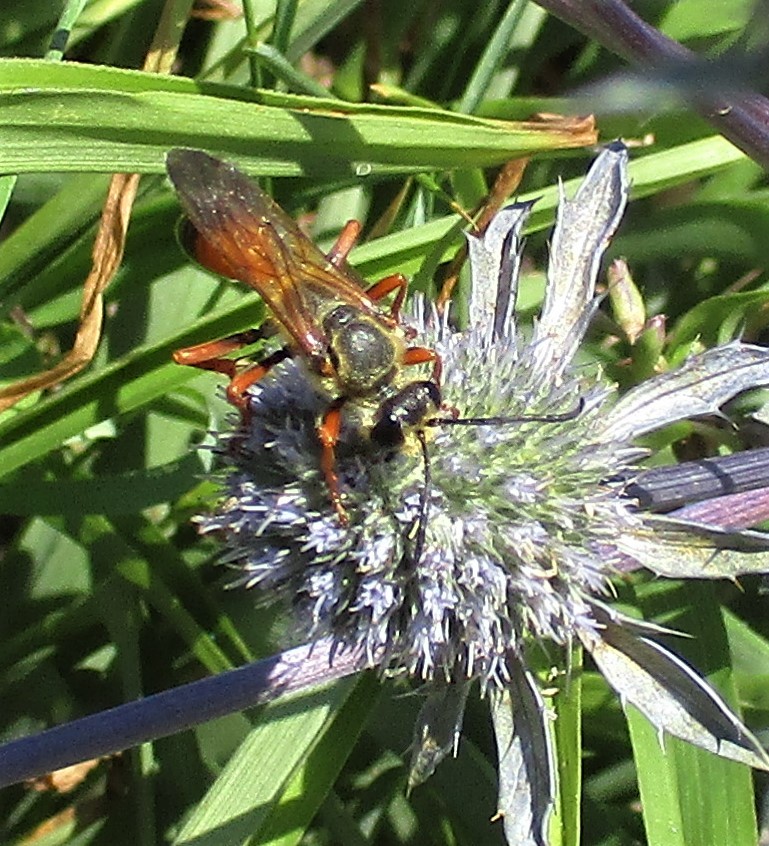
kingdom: Animalia
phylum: Arthropoda
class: Insecta
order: Hymenoptera
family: Sphecidae
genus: Sphex
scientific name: Sphex ichneumoneus
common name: Great golden digger wasp
